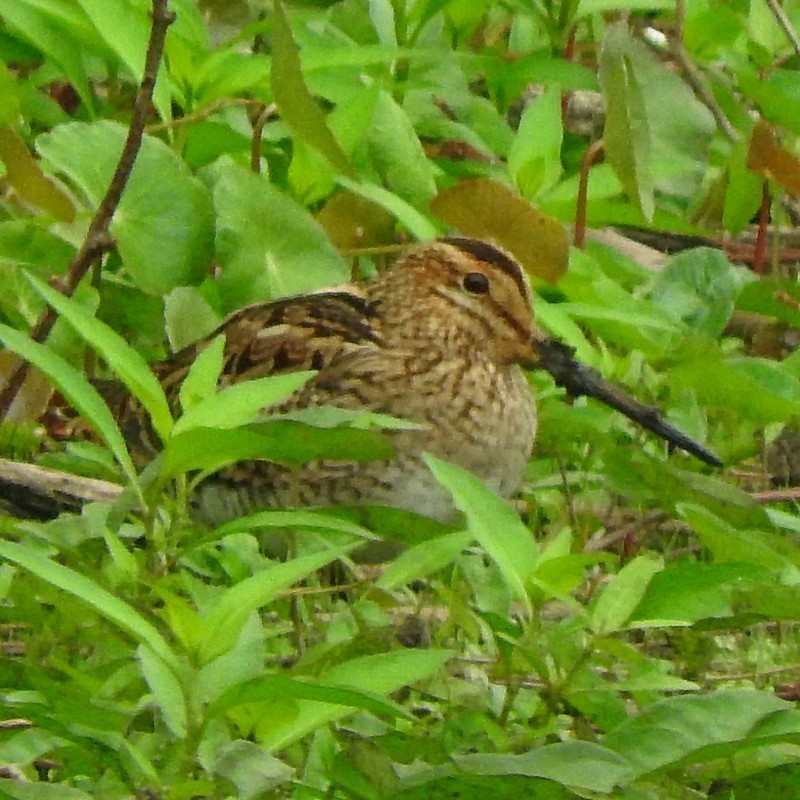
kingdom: Animalia
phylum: Chordata
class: Aves
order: Charadriiformes
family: Scolopacidae
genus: Gallinago
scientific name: Gallinago hardwickii
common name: Latham's snipe
